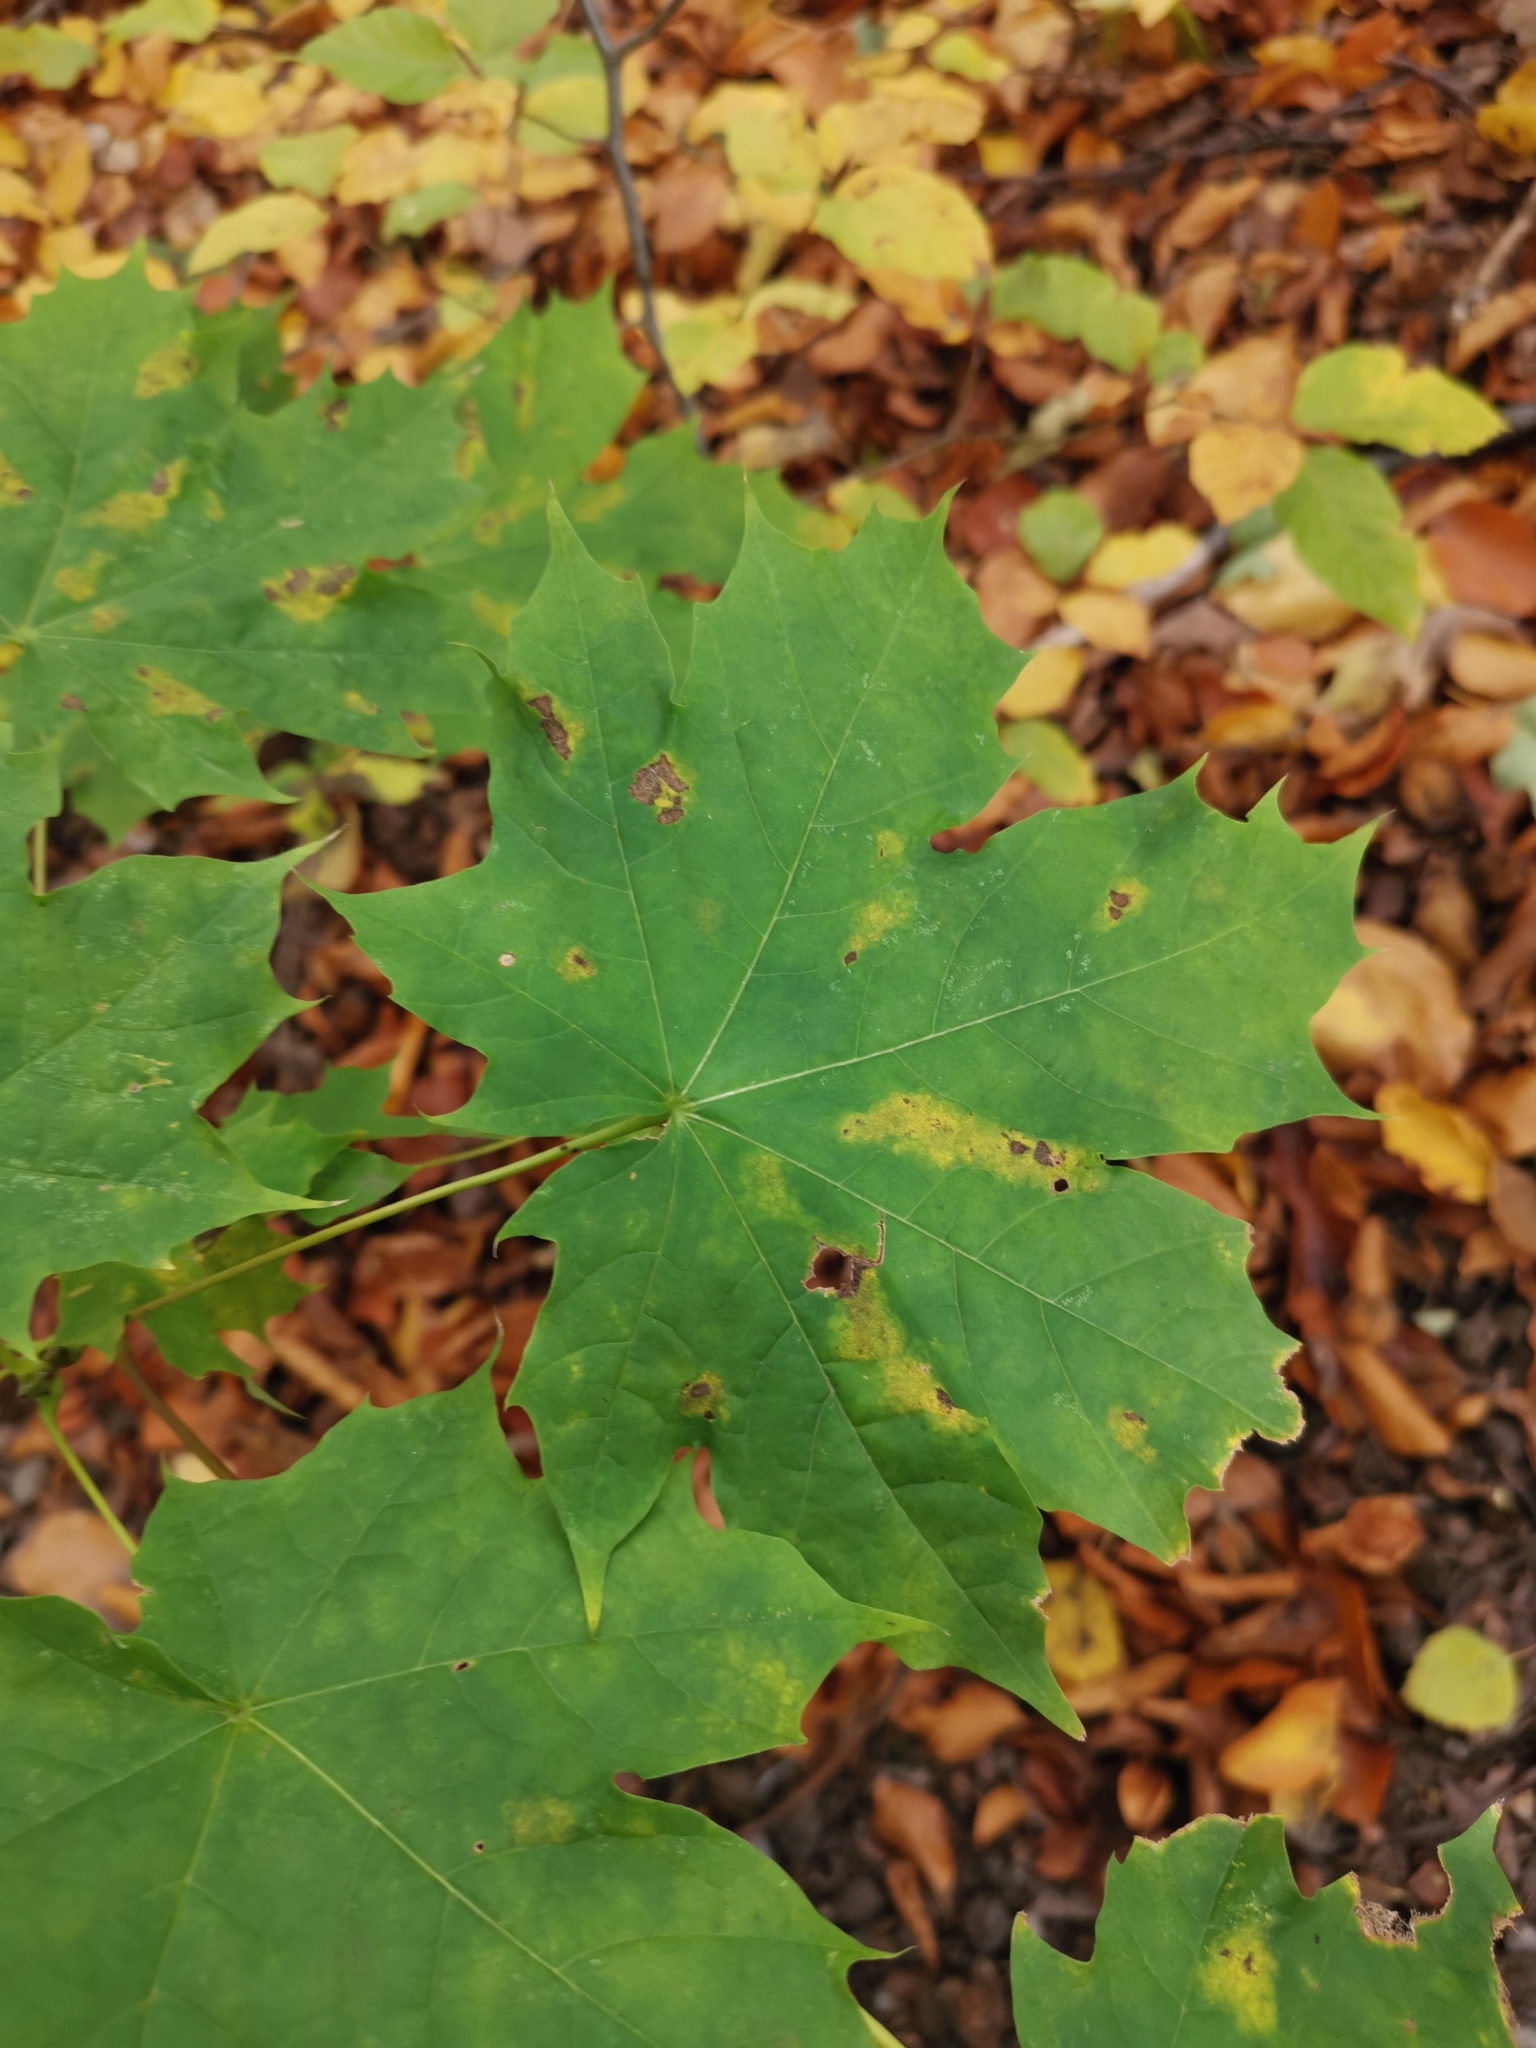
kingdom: Plantae
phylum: Tracheophyta
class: Magnoliopsida
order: Sapindales
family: Sapindaceae
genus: Acer
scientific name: Acer platanoides
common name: Norway maple
